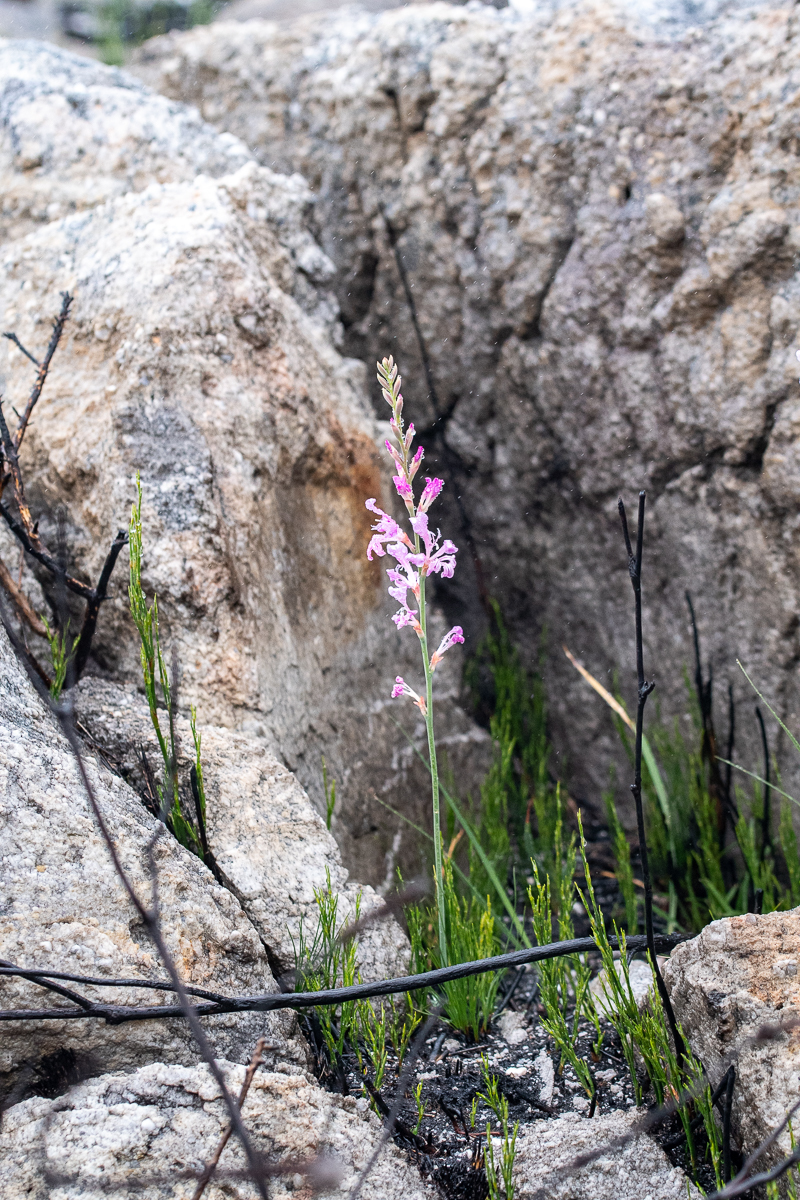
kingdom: Plantae
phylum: Tracheophyta
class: Liliopsida
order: Asparagales
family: Iridaceae
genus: Tritoniopsis
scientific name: Tritoniopsis lata
